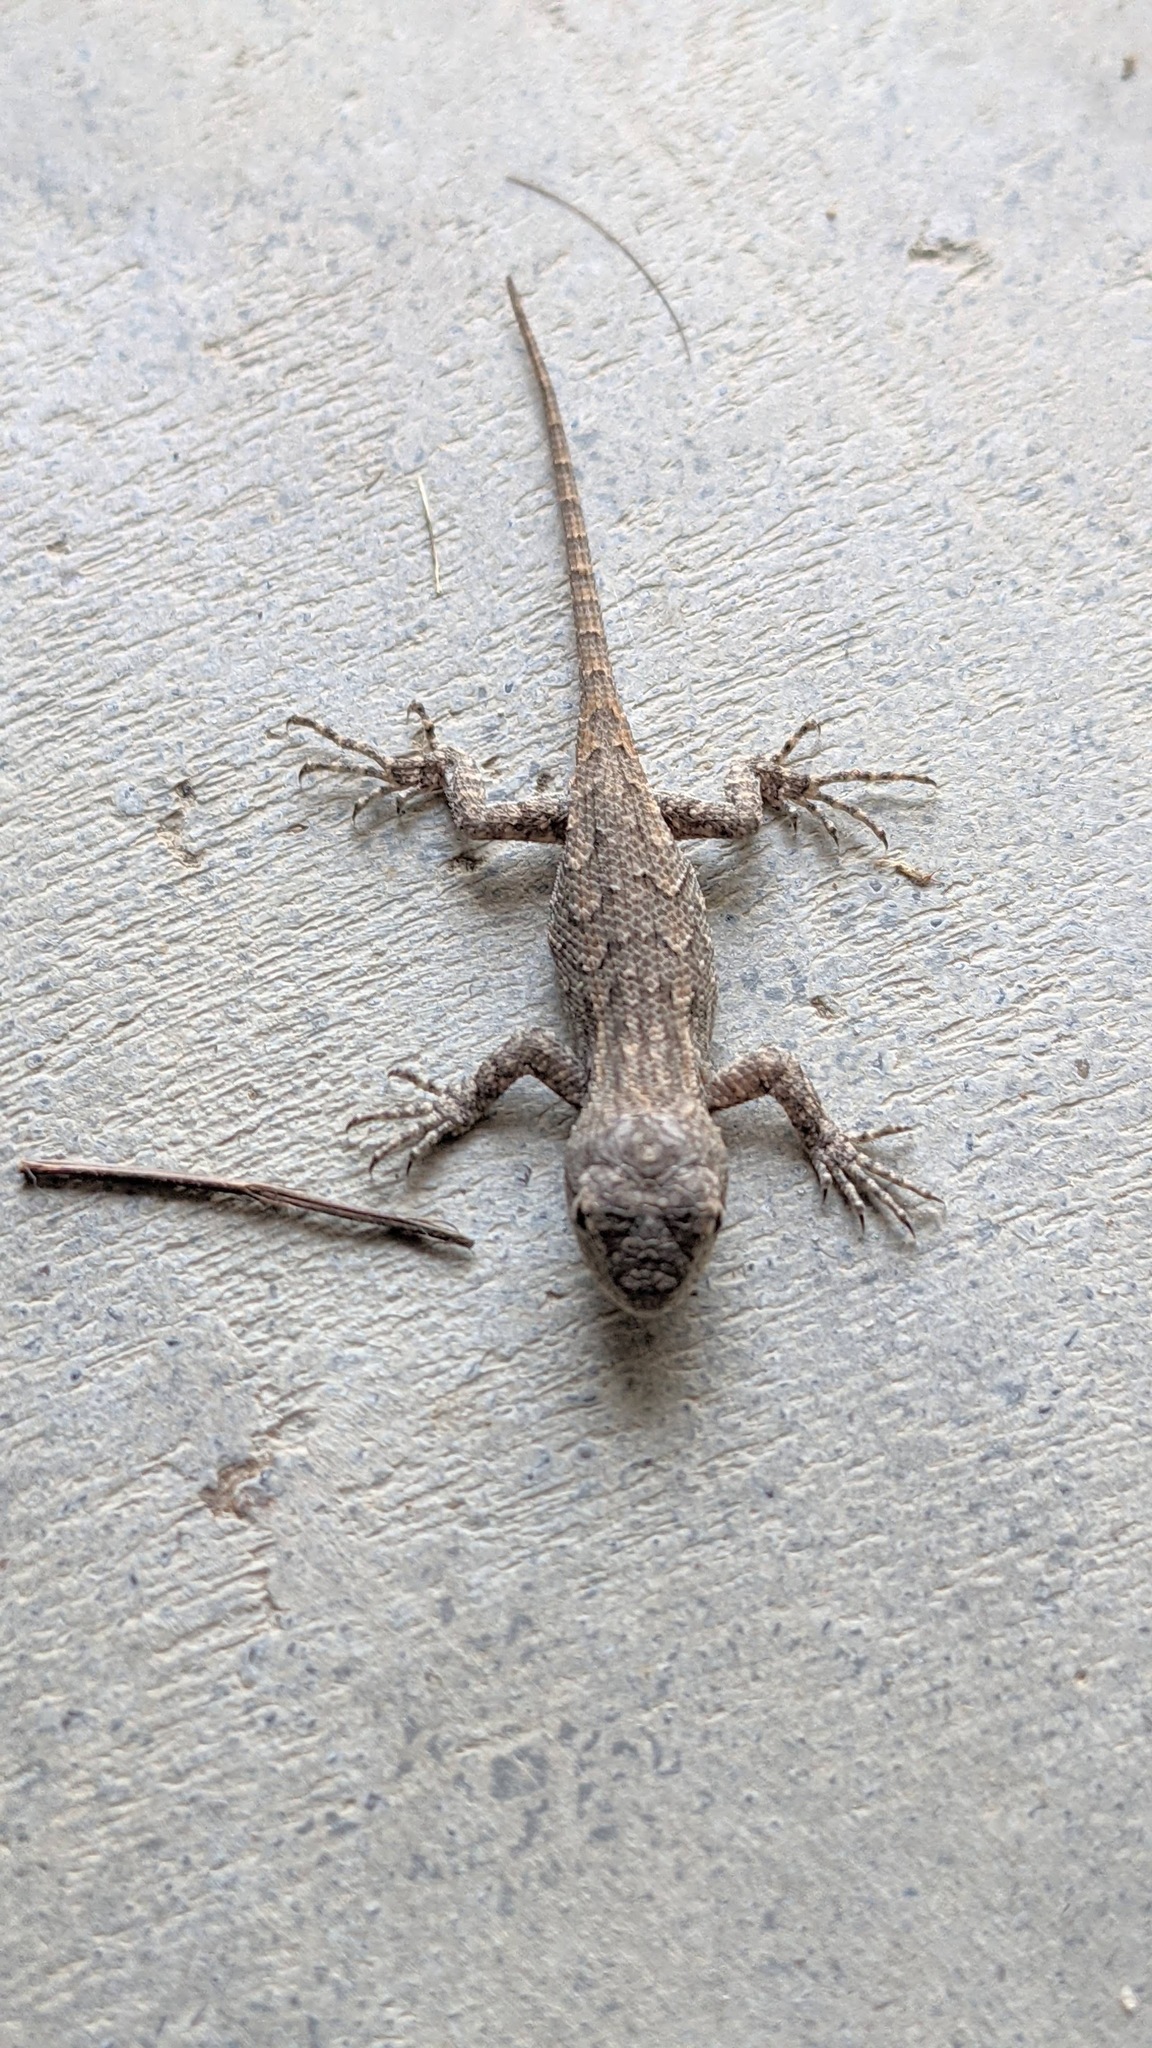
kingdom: Animalia
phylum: Chordata
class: Squamata
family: Phrynosomatidae
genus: Sceloporus
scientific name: Sceloporus consobrinus
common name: Southern prairie lizard
